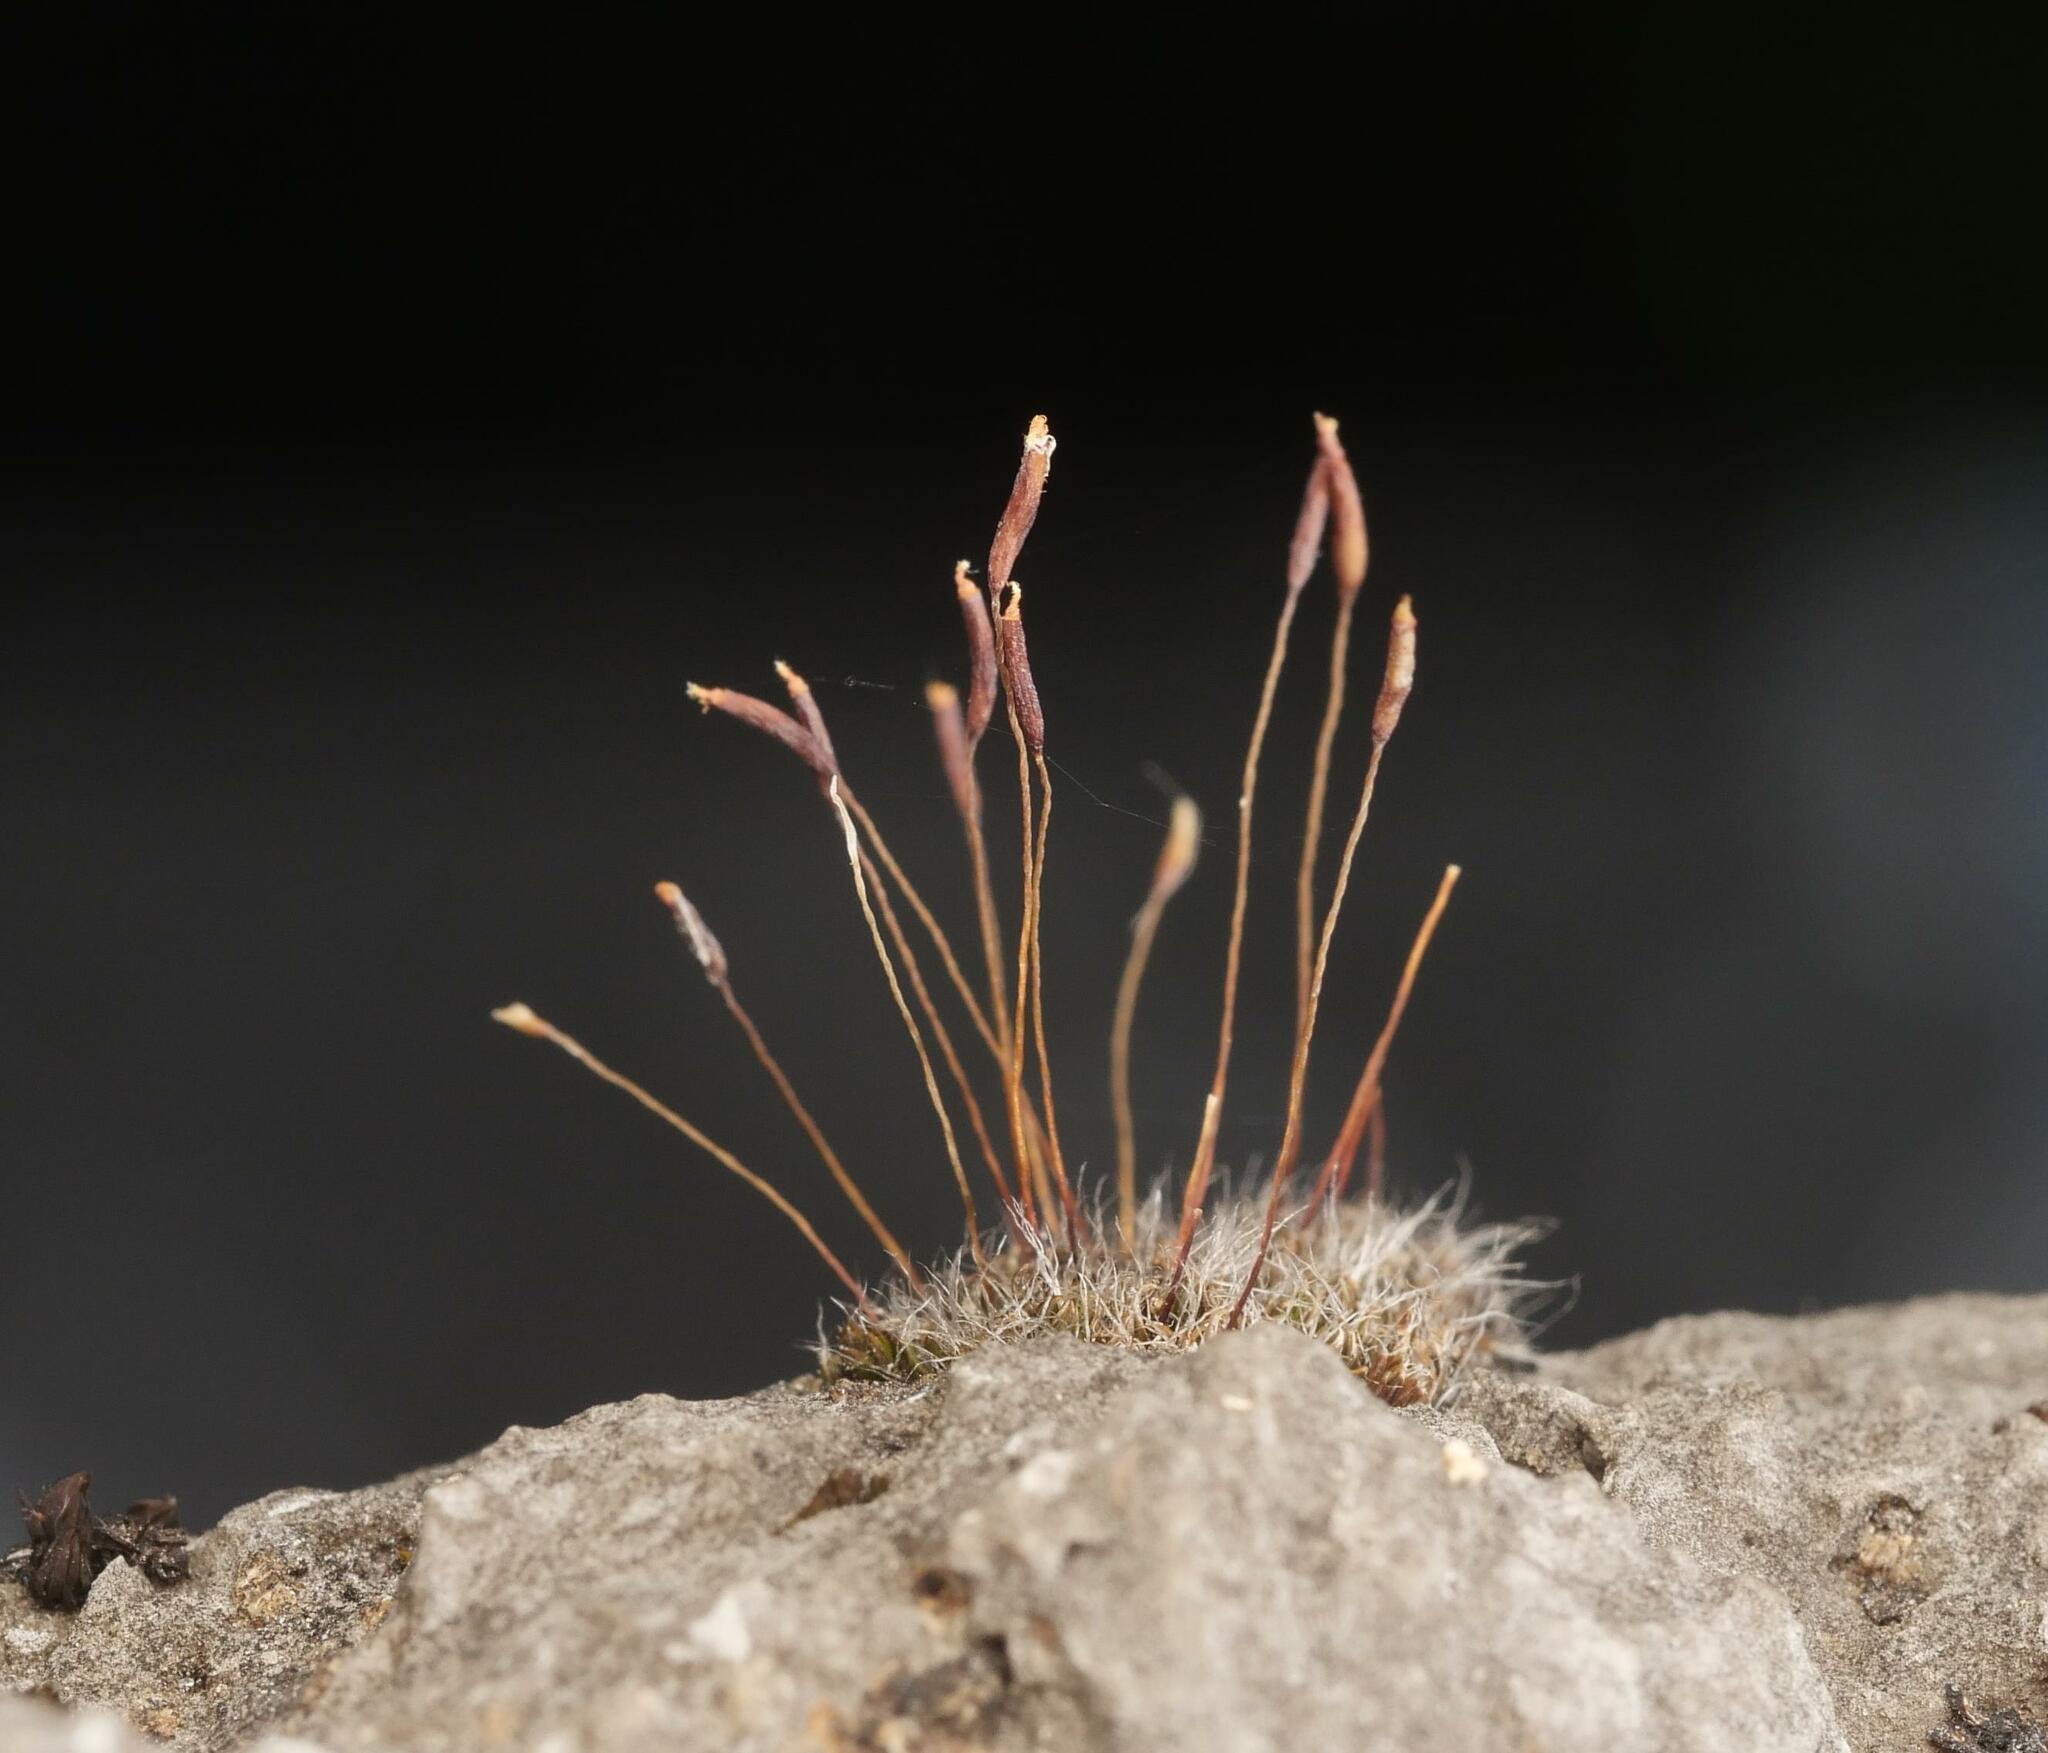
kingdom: Plantae
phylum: Bryophyta
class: Bryopsida
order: Pottiales
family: Pottiaceae
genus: Tortula
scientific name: Tortula muralis
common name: Wall screw-moss
